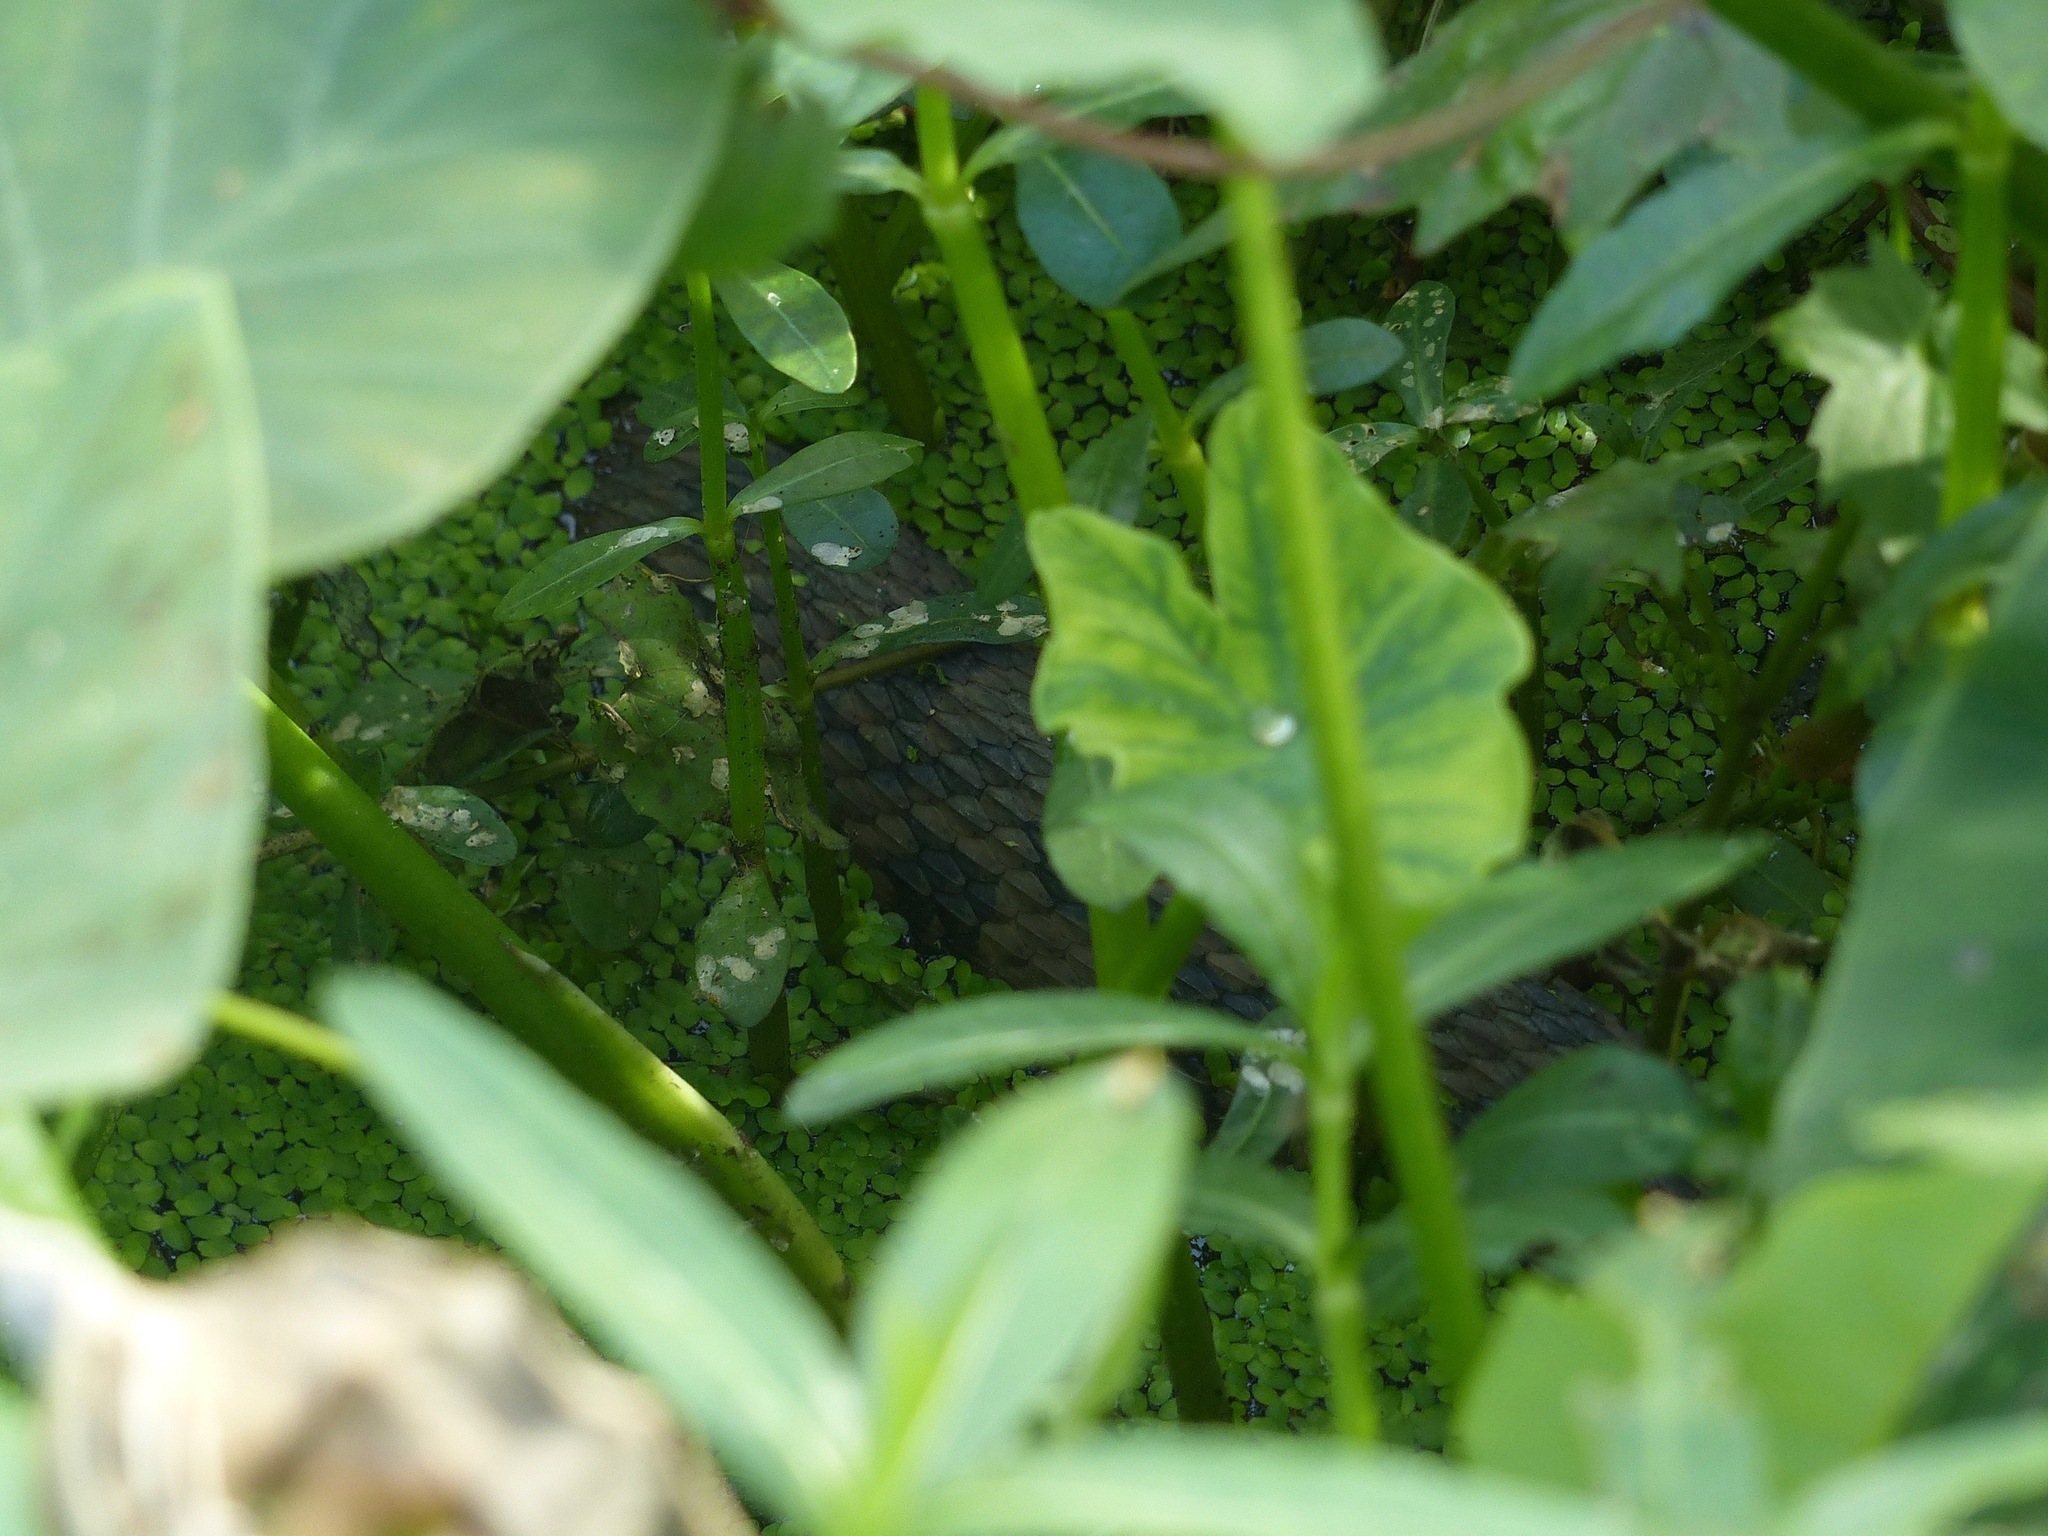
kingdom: Animalia
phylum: Chordata
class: Squamata
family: Colubridae
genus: Nerodia
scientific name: Nerodia rhombifer
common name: Diamondback water snake
